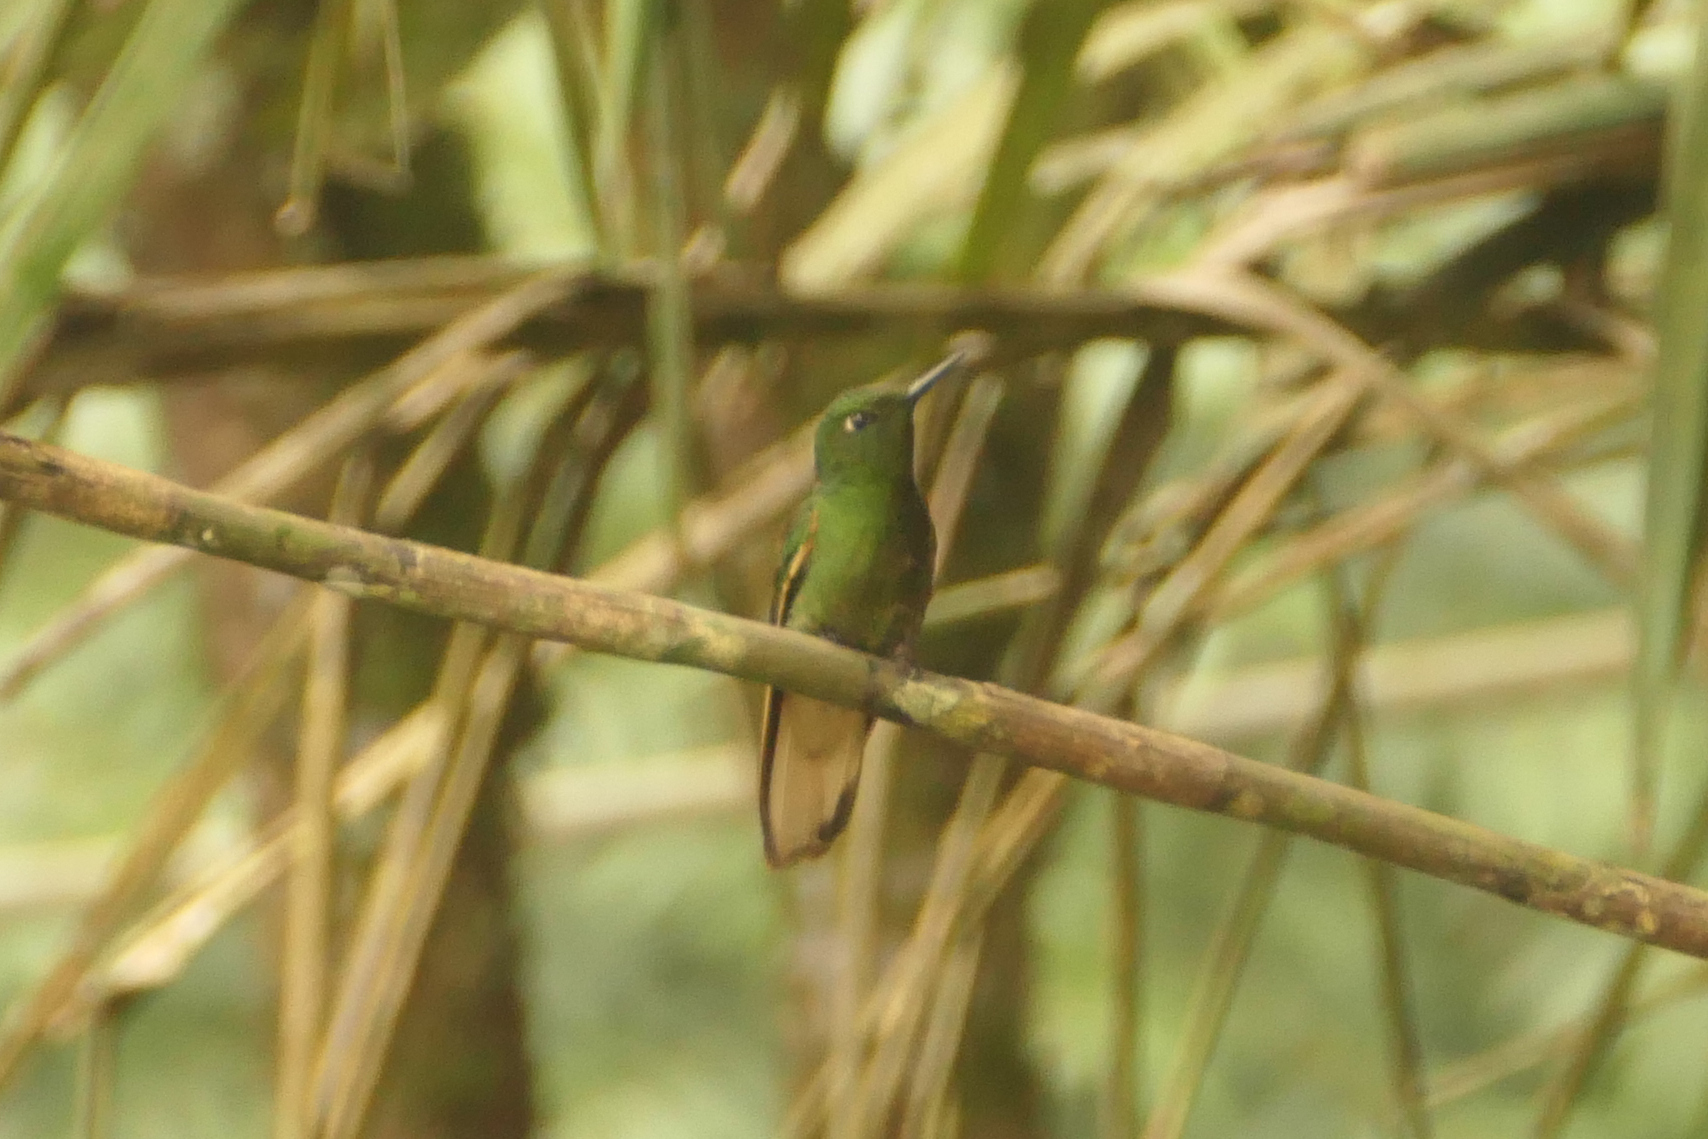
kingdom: Animalia
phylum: Chordata
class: Aves
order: Apodiformes
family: Trochilidae
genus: Boissonneaua
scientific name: Boissonneaua flavescens
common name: Buff-tailed coronet
